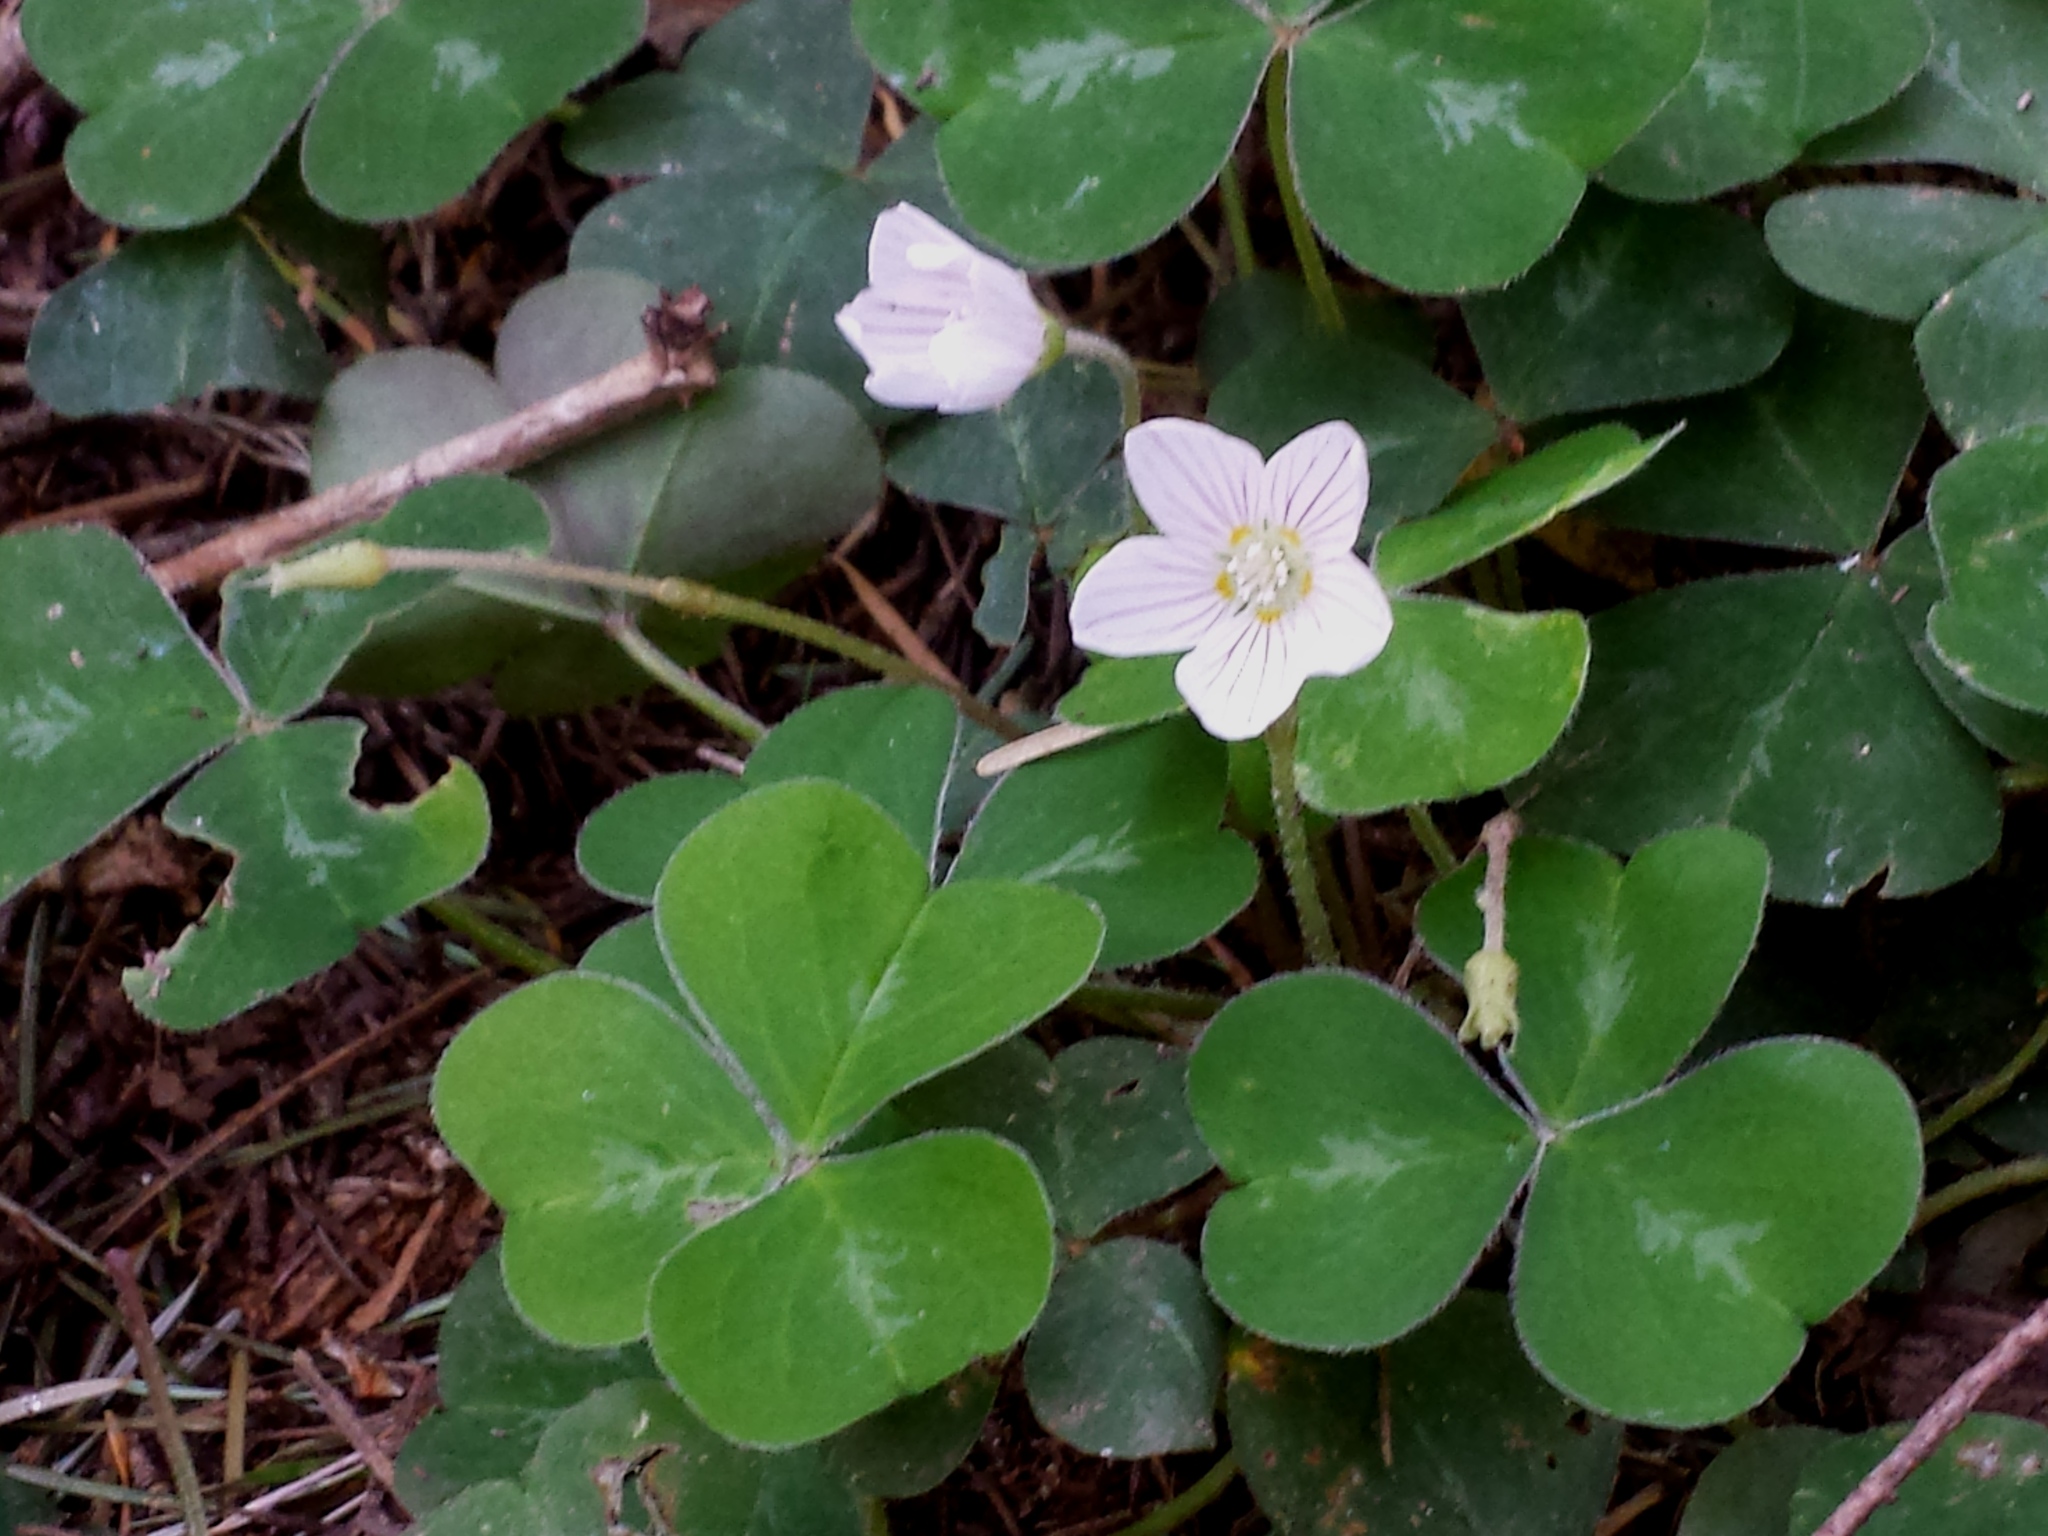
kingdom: Plantae
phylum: Tracheophyta
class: Magnoliopsida
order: Oxalidales
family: Oxalidaceae
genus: Oxalis
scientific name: Oxalis oregana
